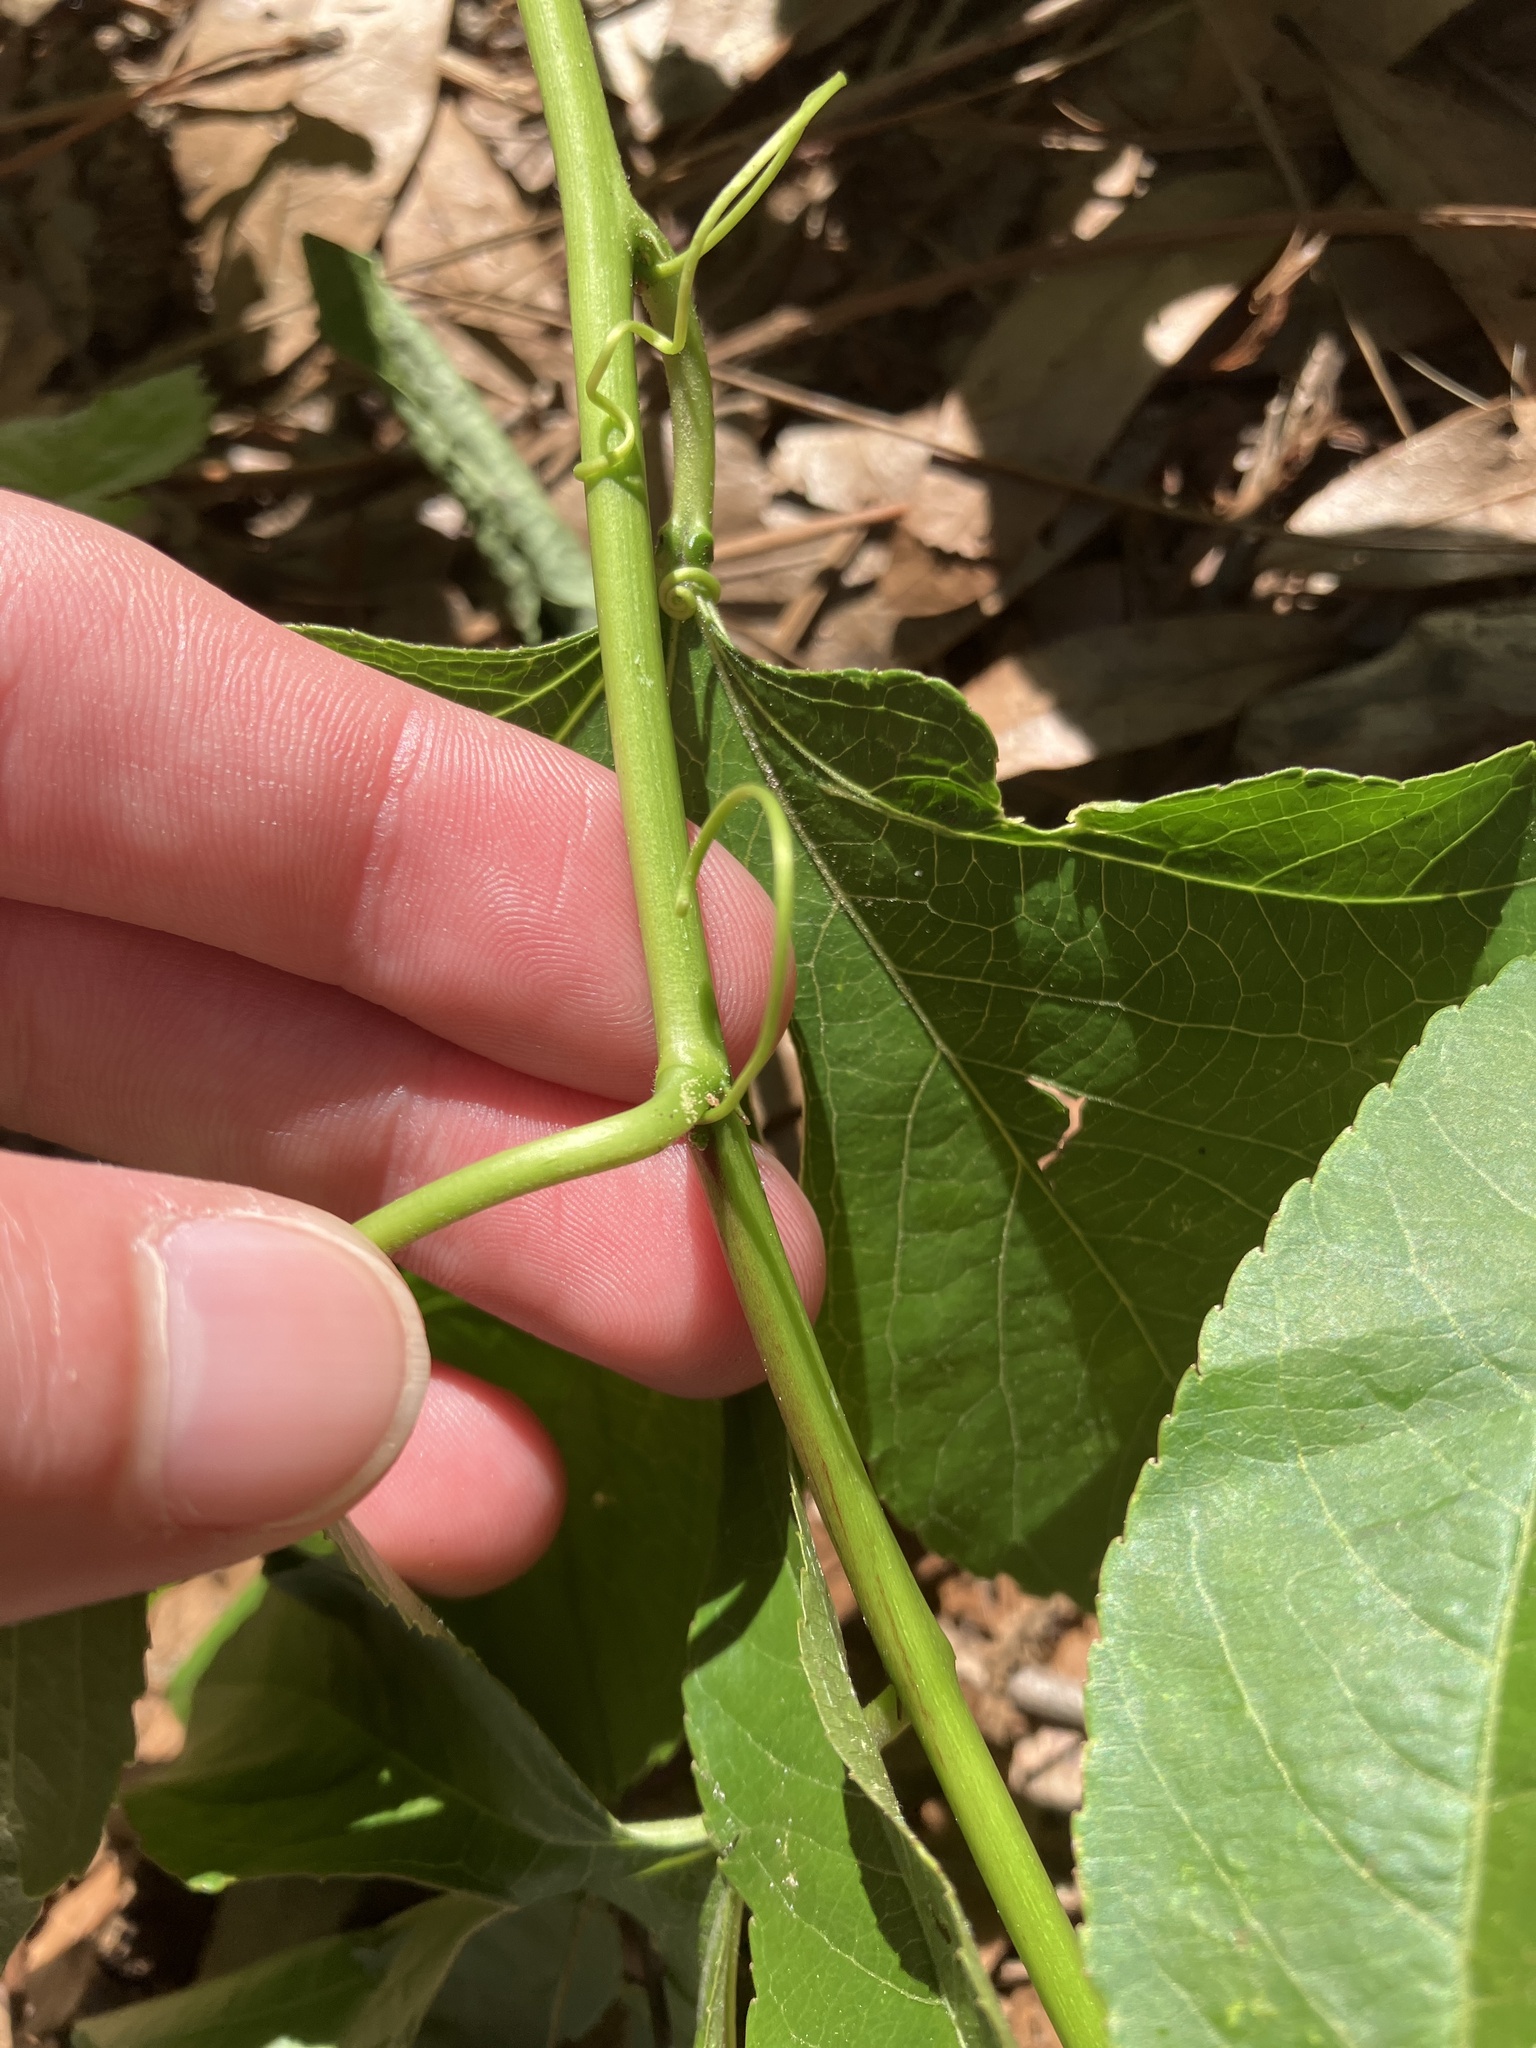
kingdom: Plantae
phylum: Tracheophyta
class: Magnoliopsida
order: Malpighiales
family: Passifloraceae
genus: Passiflora
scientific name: Passiflora
